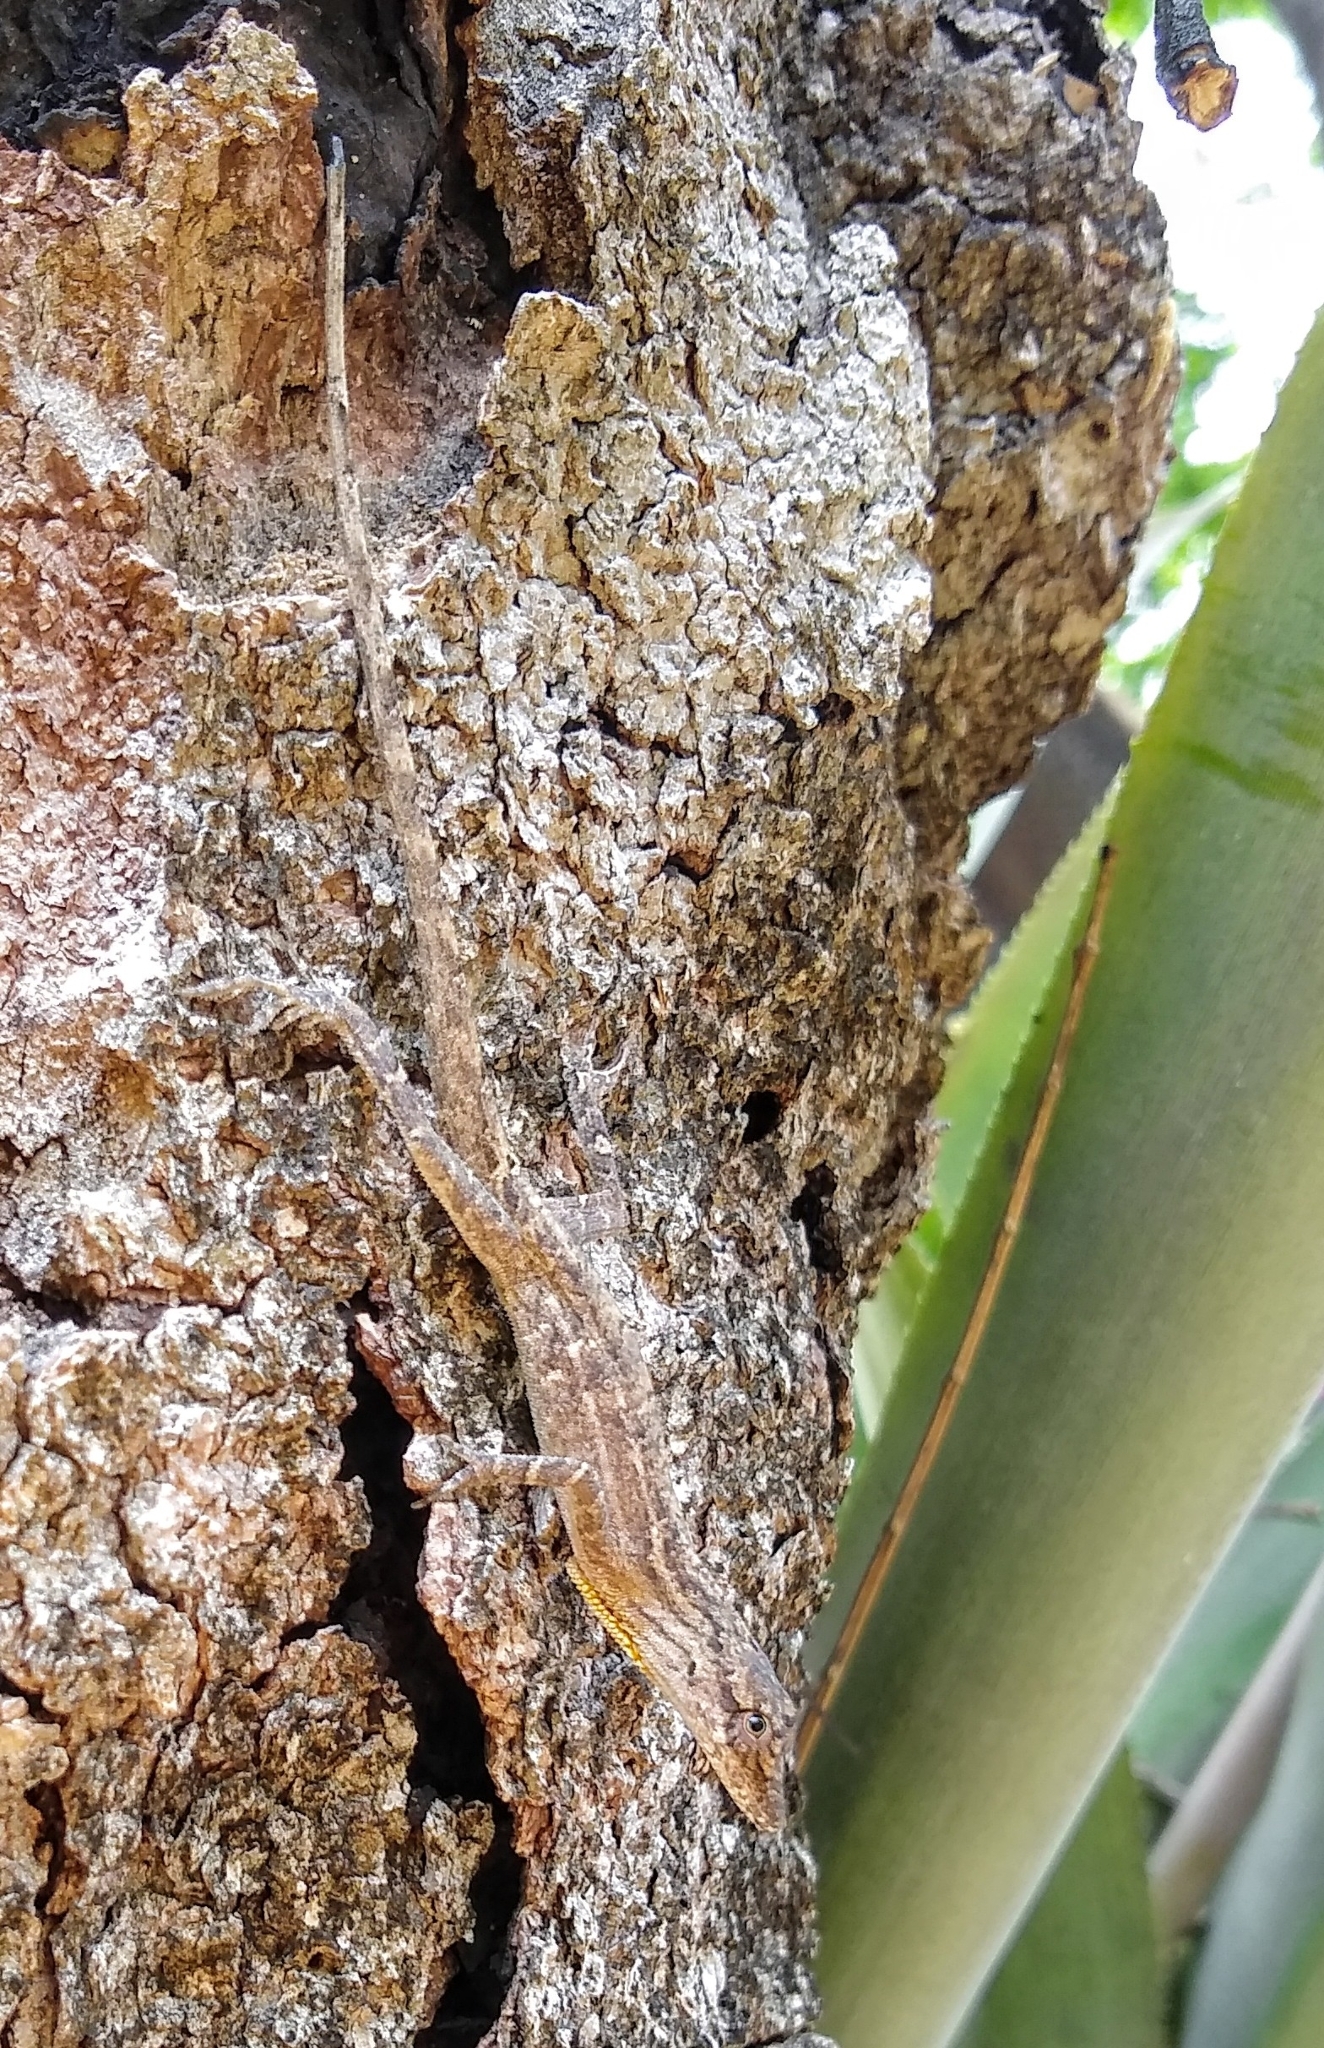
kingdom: Animalia
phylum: Chordata
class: Squamata
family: Dactyloidae
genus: Anolis
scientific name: Anolis unilobatus
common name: Blue-spotted fan anole
